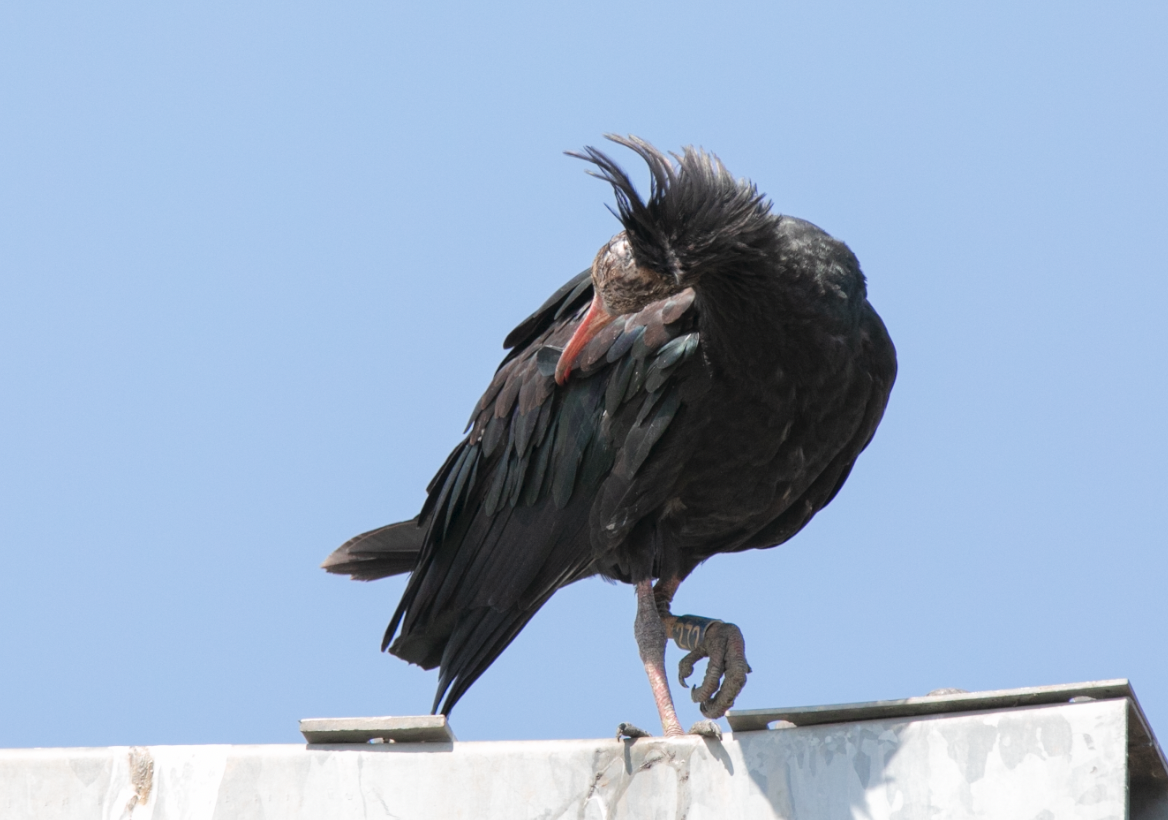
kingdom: Animalia
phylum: Chordata
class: Aves
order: Pelecaniformes
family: Threskiornithidae
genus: Geronticus
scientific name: Geronticus eremita
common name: Northern bald ibis
